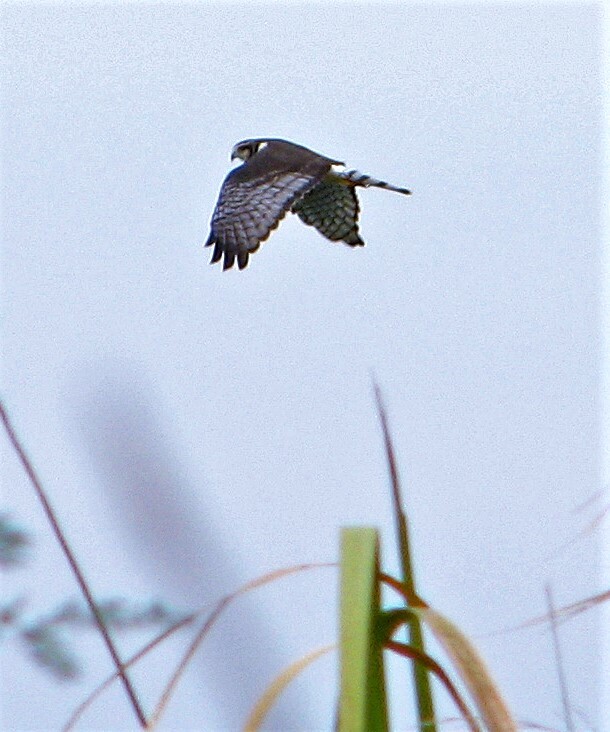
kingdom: Animalia
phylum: Chordata
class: Aves
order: Accipitriformes
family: Accipitridae
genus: Circus
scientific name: Circus buffoni
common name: Long-winged harrier
